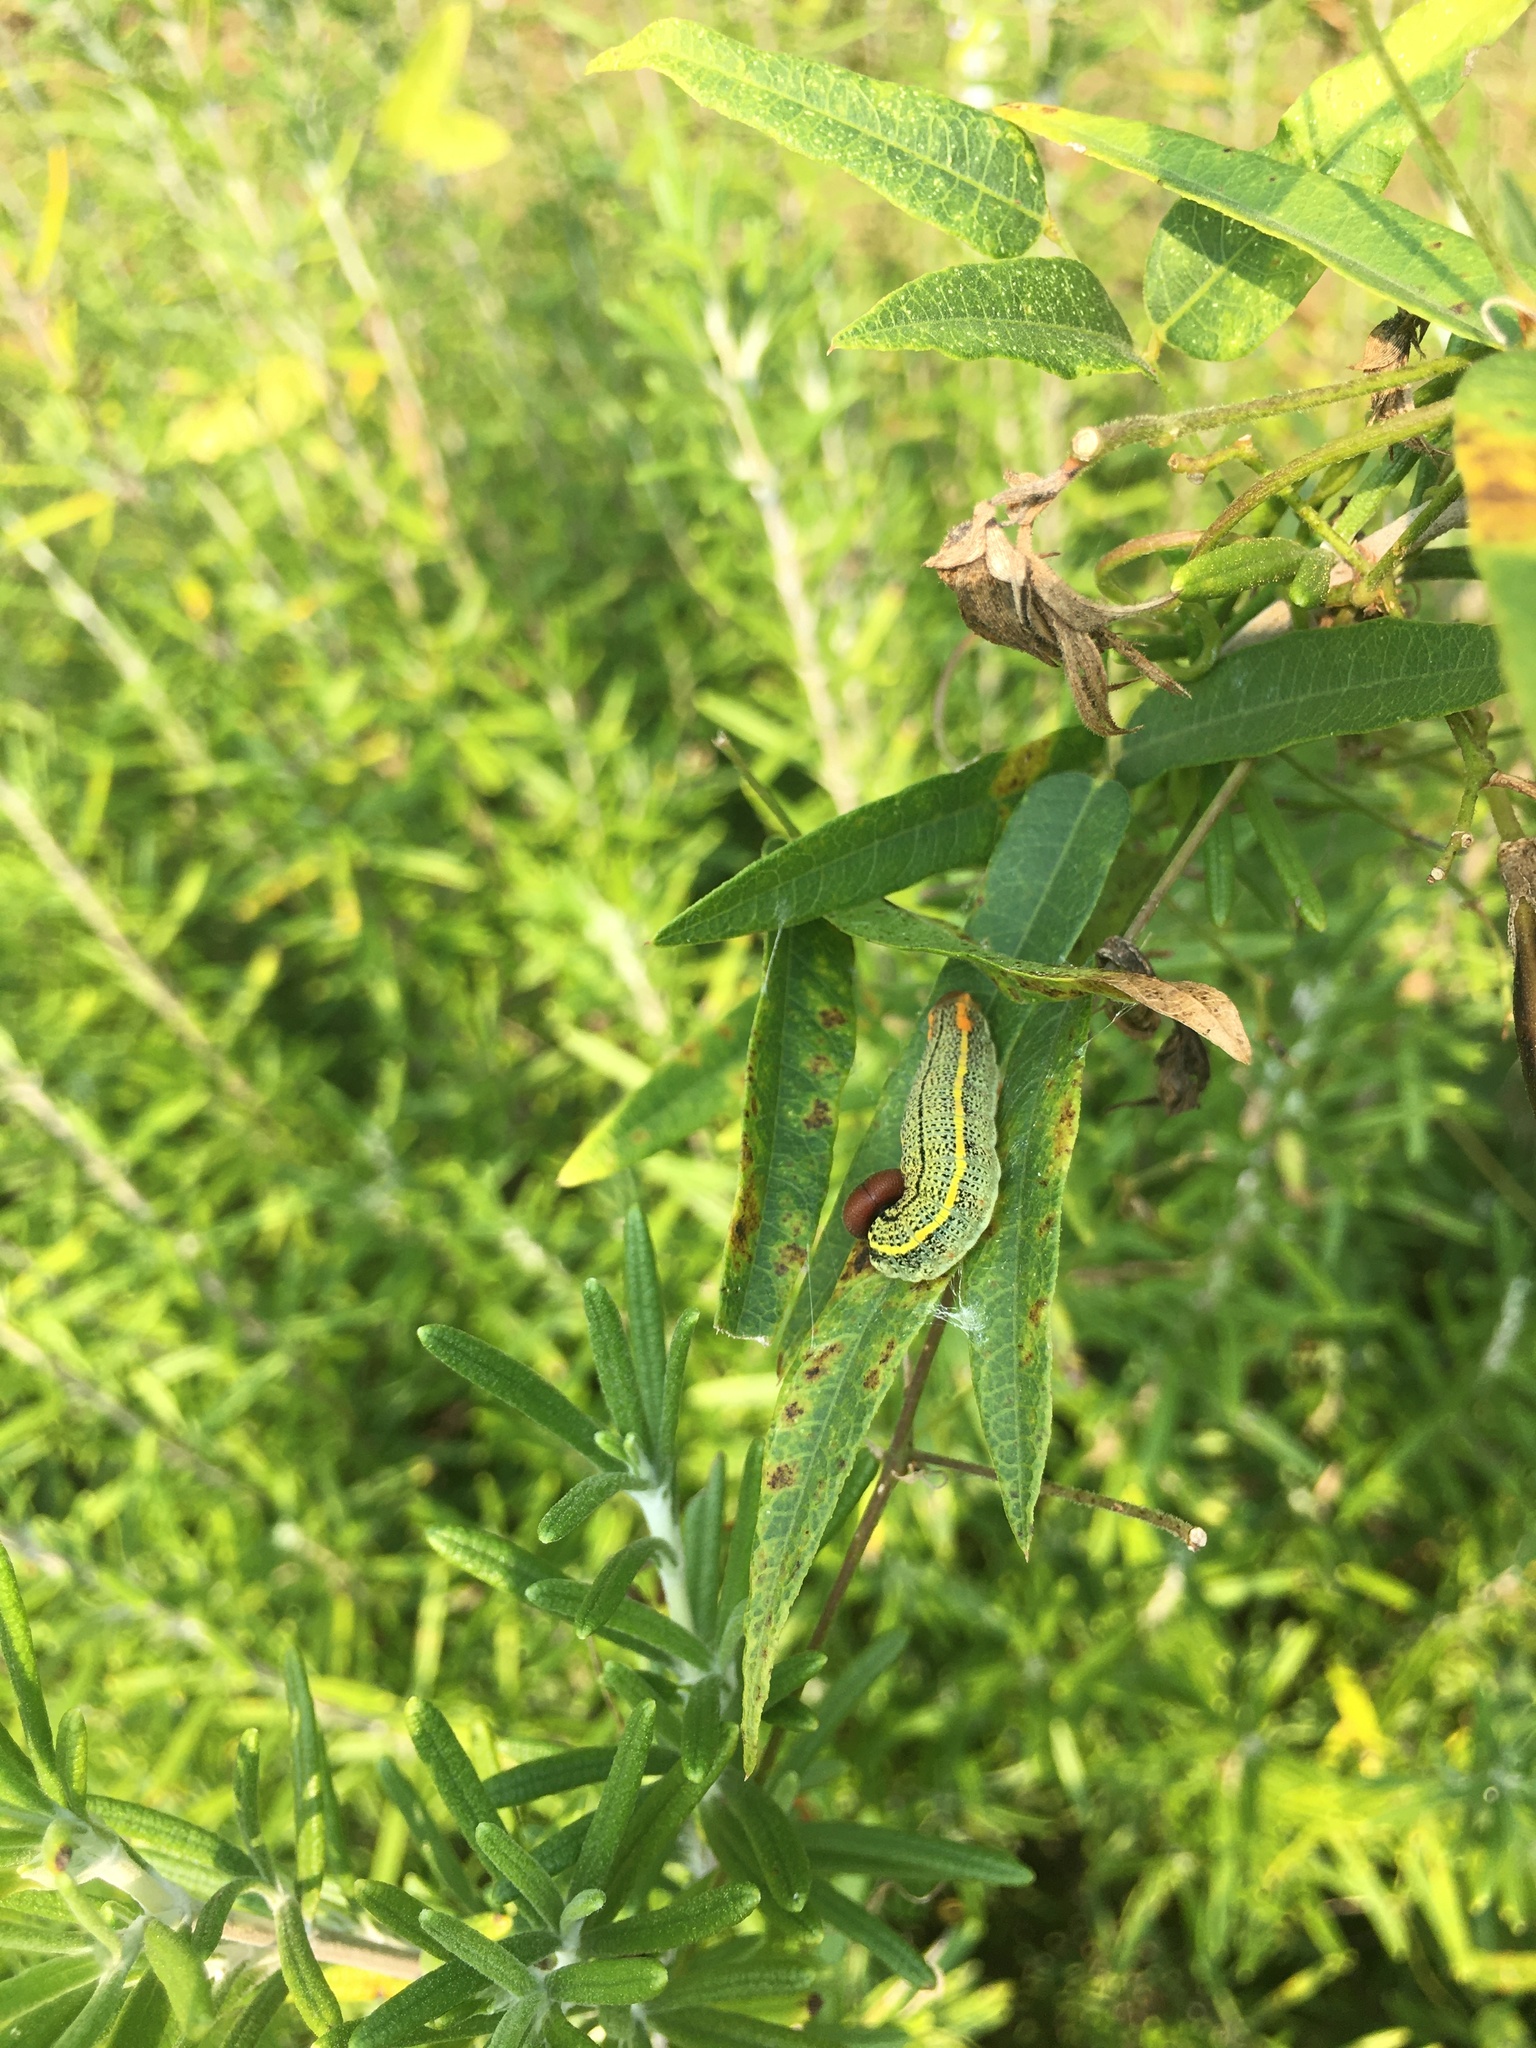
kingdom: Animalia
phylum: Arthropoda
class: Insecta
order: Lepidoptera
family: Hesperiidae
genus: Urbanus
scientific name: Urbanus proteus
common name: Long-tailed skipper
